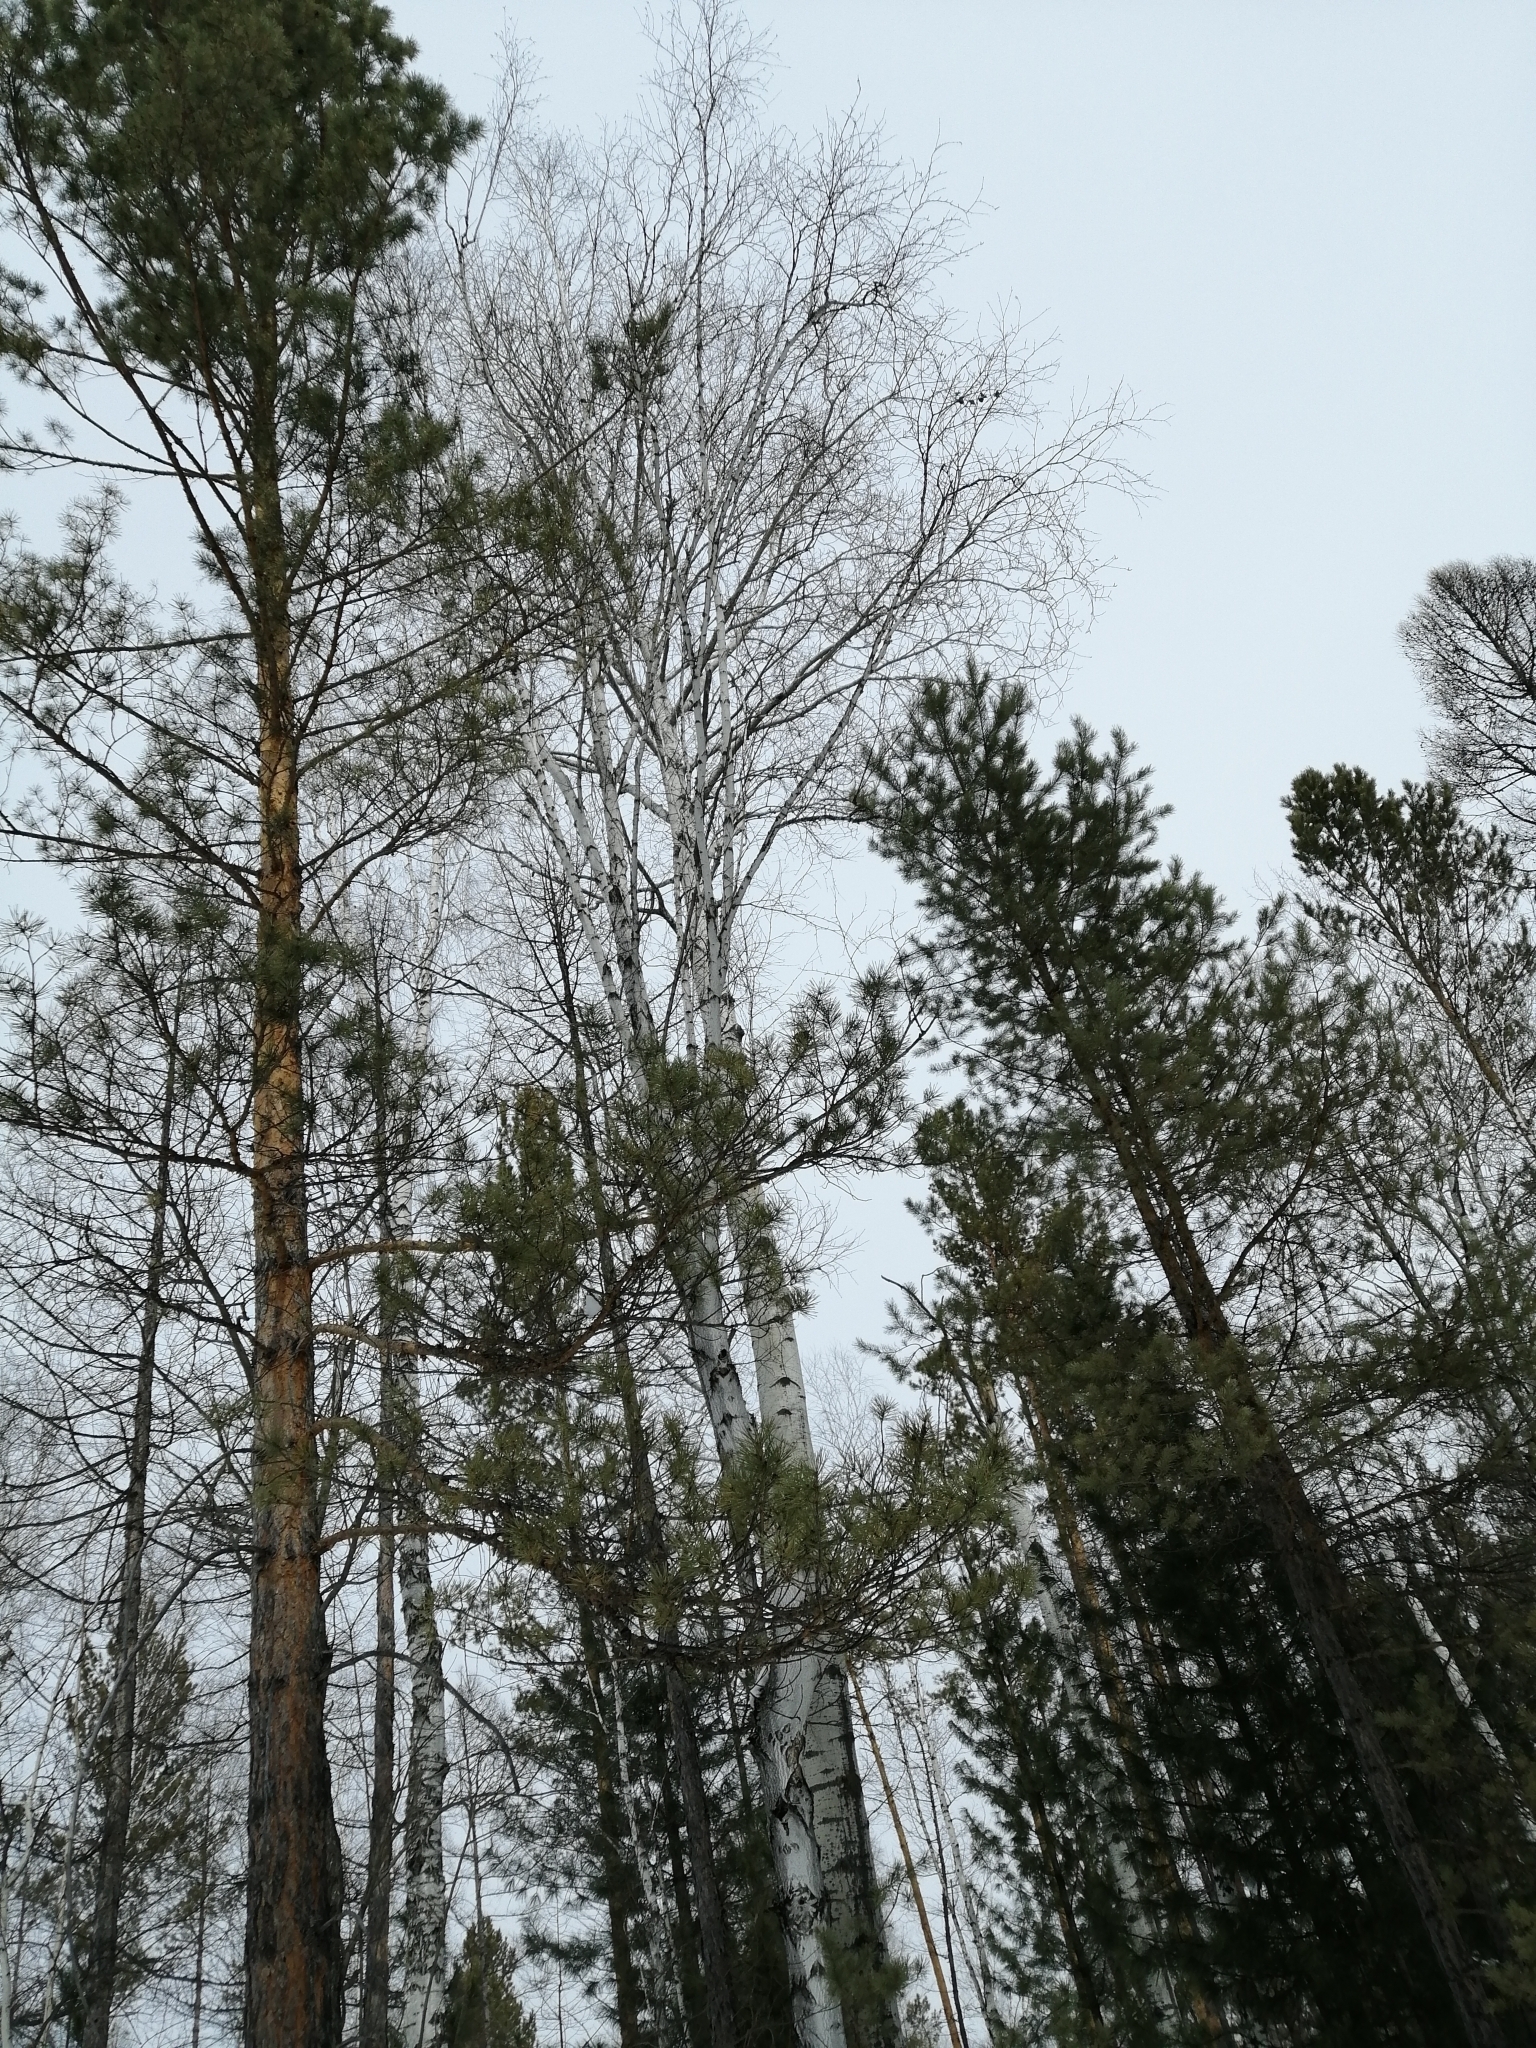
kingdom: Plantae
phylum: Tracheophyta
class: Pinopsida
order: Pinales
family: Pinaceae
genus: Pinus
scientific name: Pinus sylvestris
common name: Scots pine
